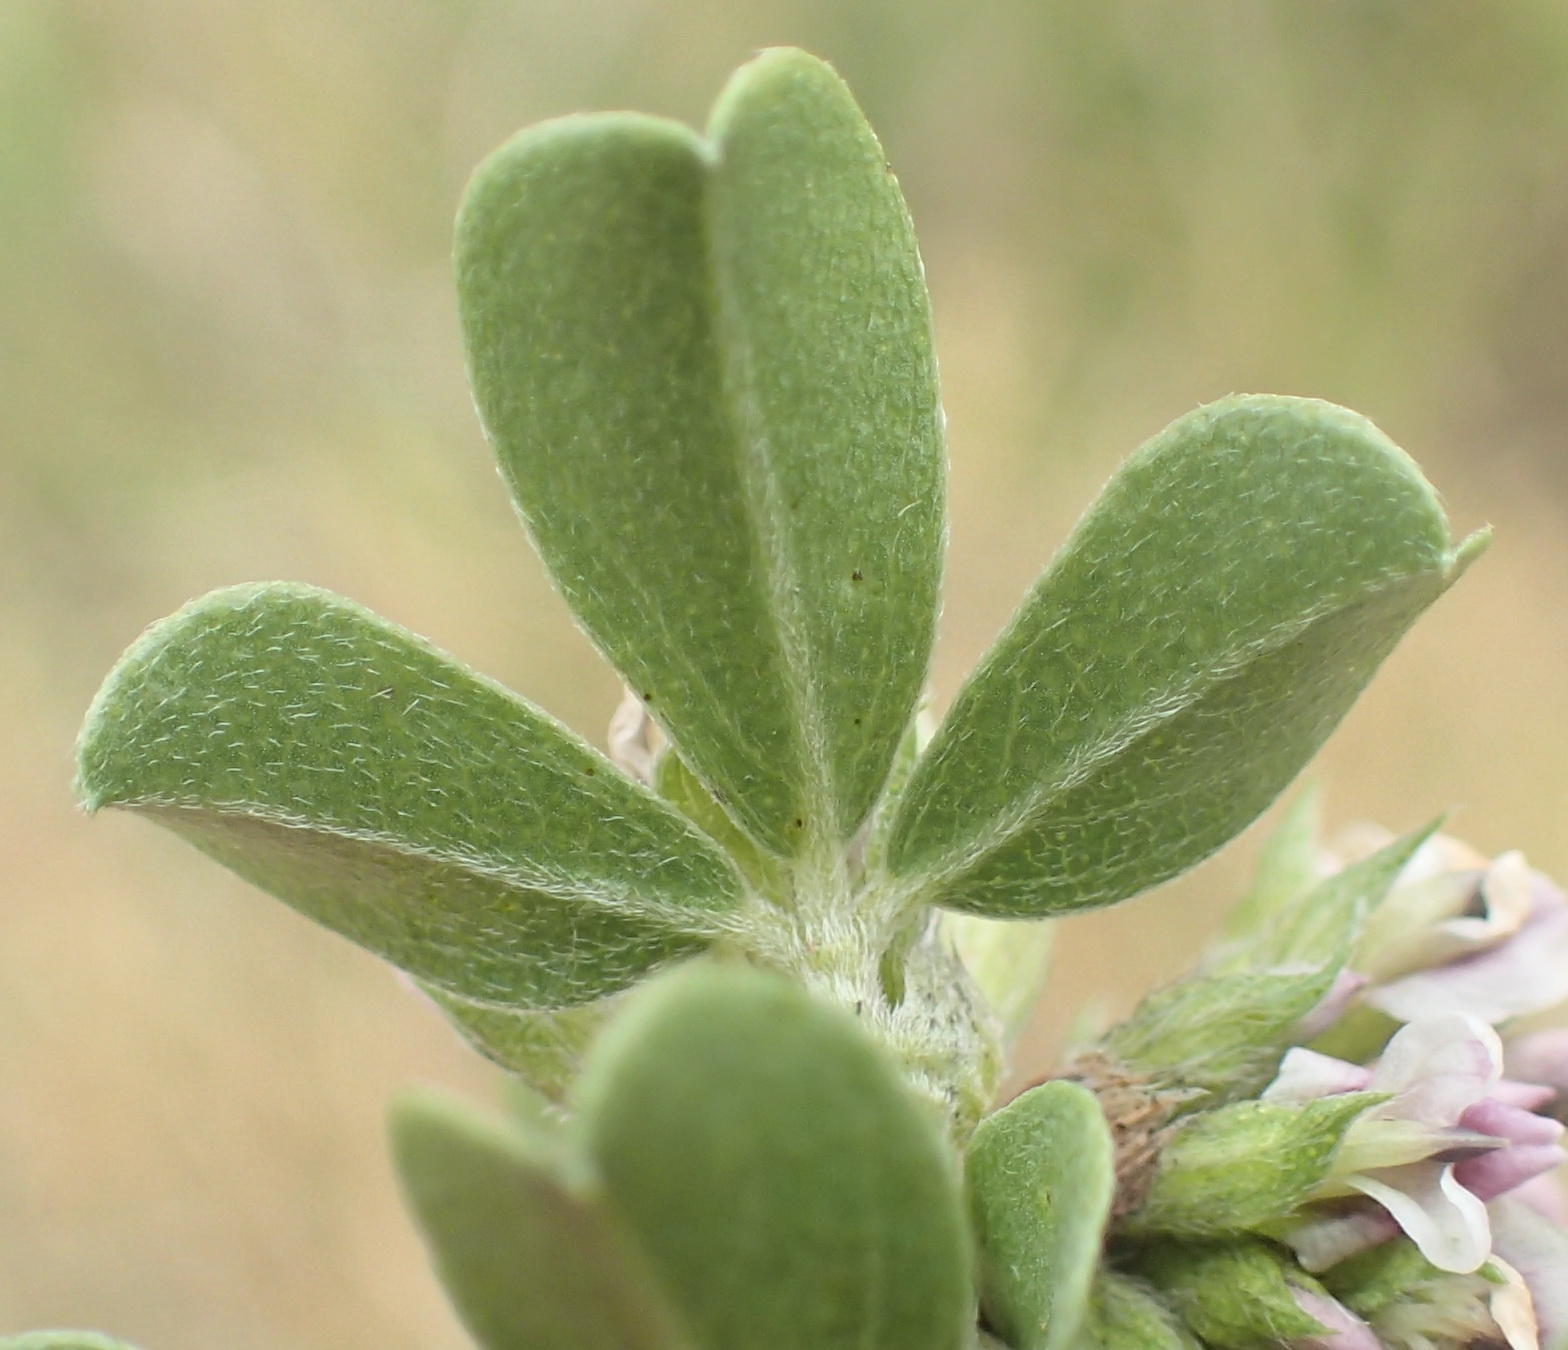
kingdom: Plantae
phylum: Tracheophyta
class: Magnoliopsida
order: Fabales
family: Fabaceae
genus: Psoralea
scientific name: Psoralea stachyera
